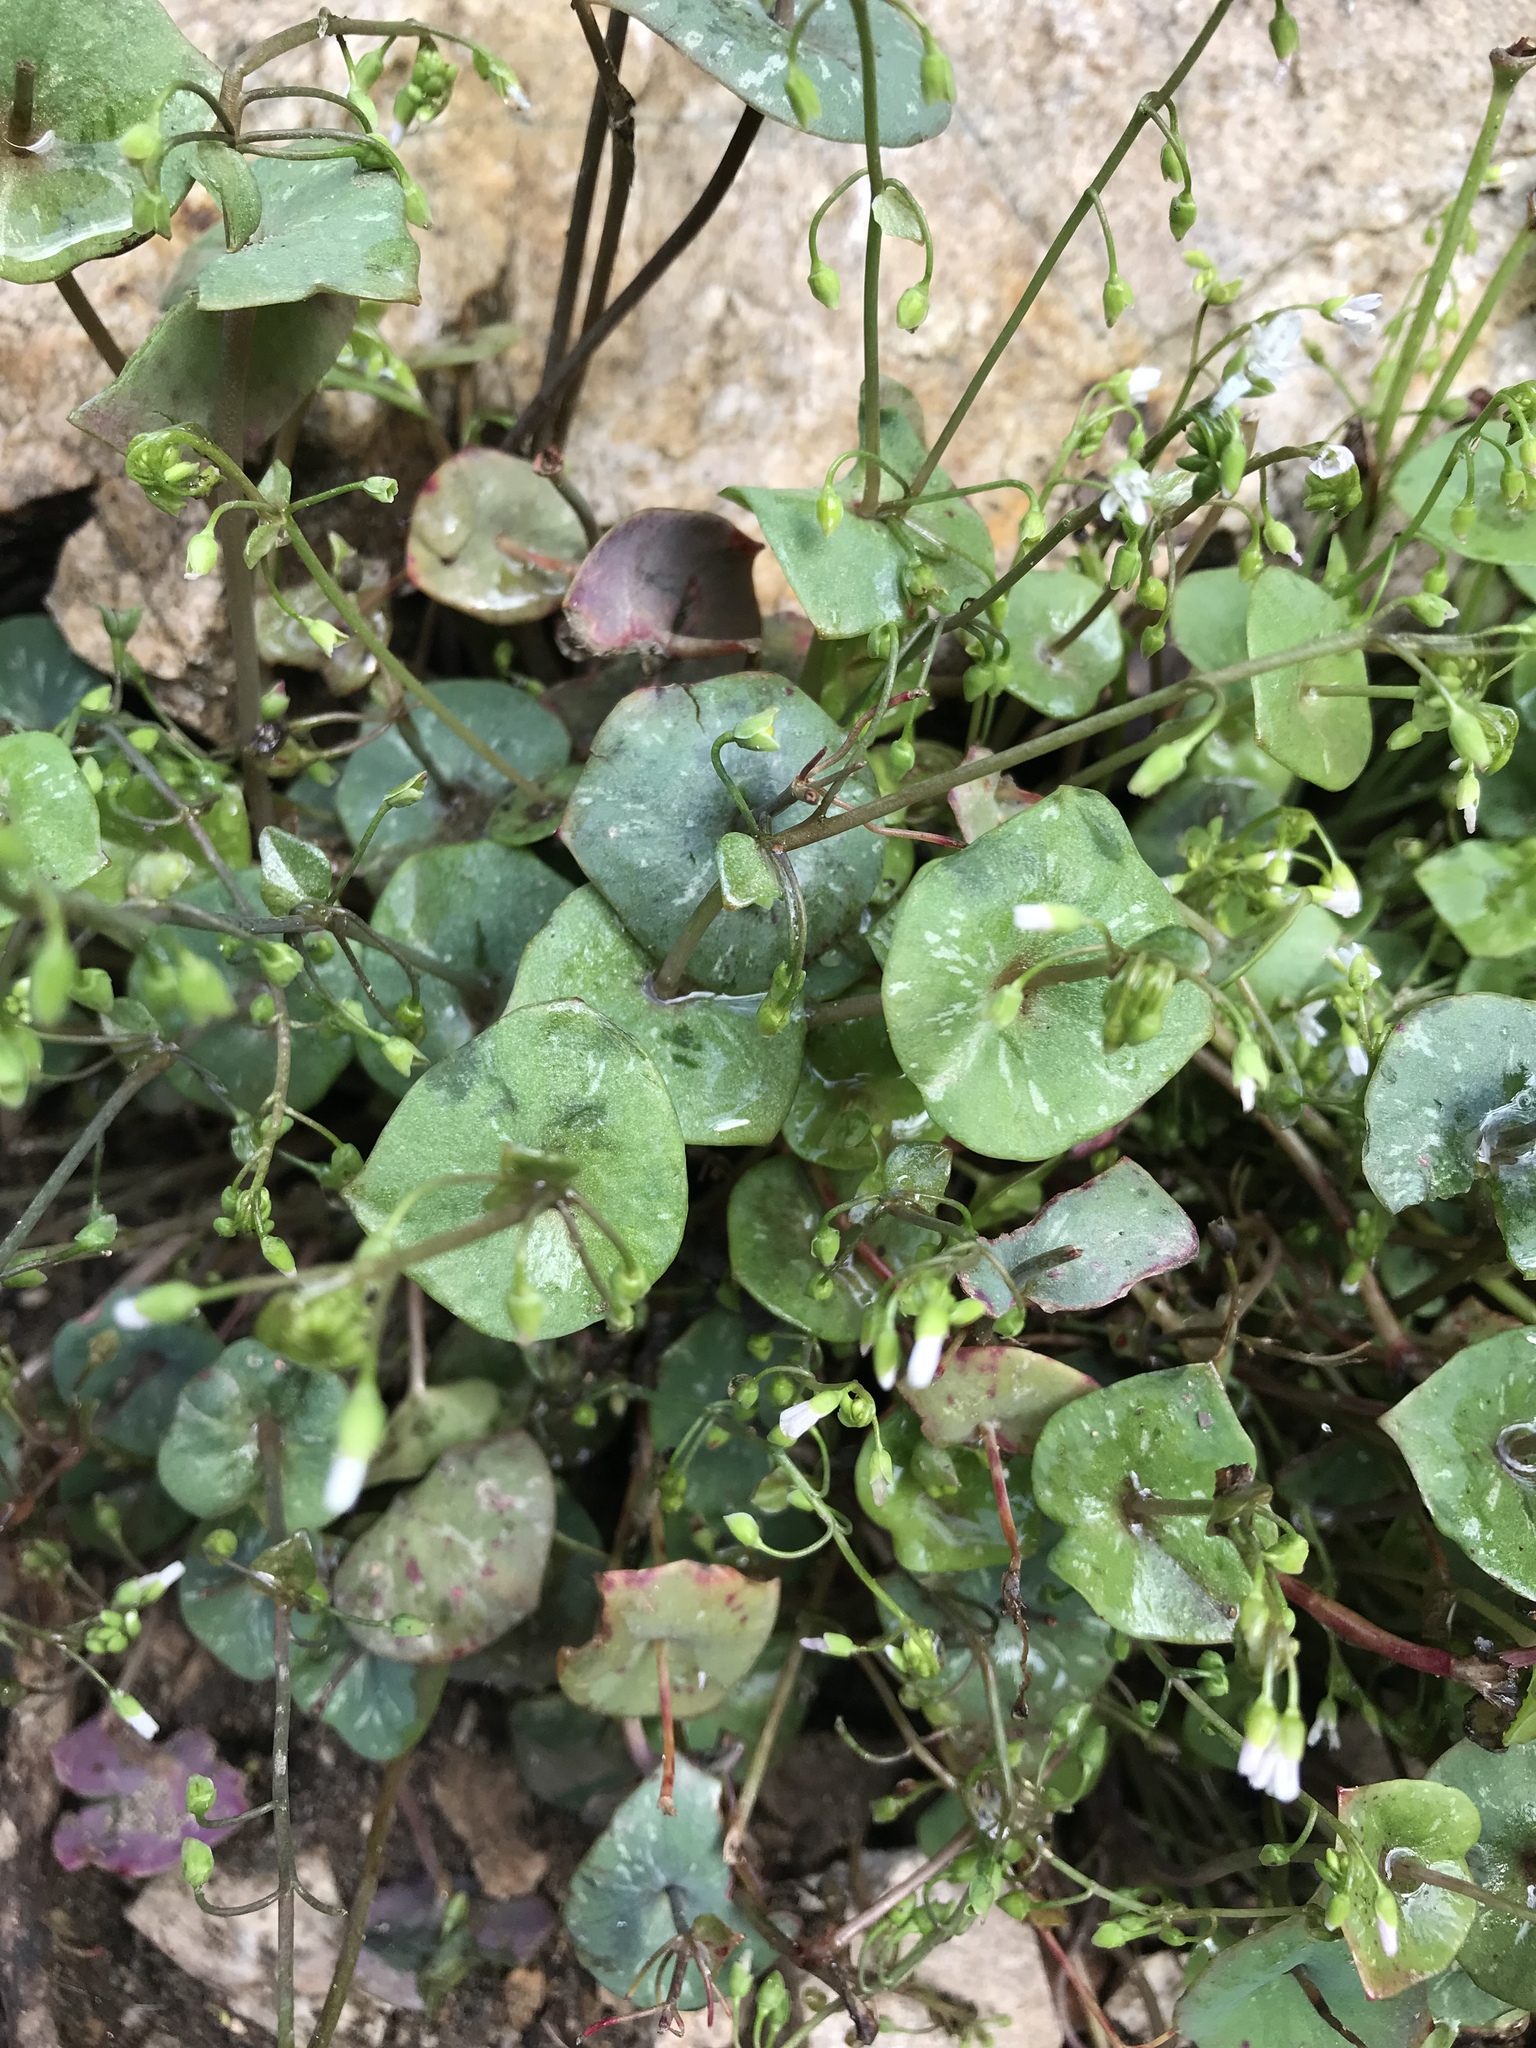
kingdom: Plantae
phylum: Tracheophyta
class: Magnoliopsida
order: Caryophyllales
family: Montiaceae
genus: Claytonia
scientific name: Claytonia perfoliata
